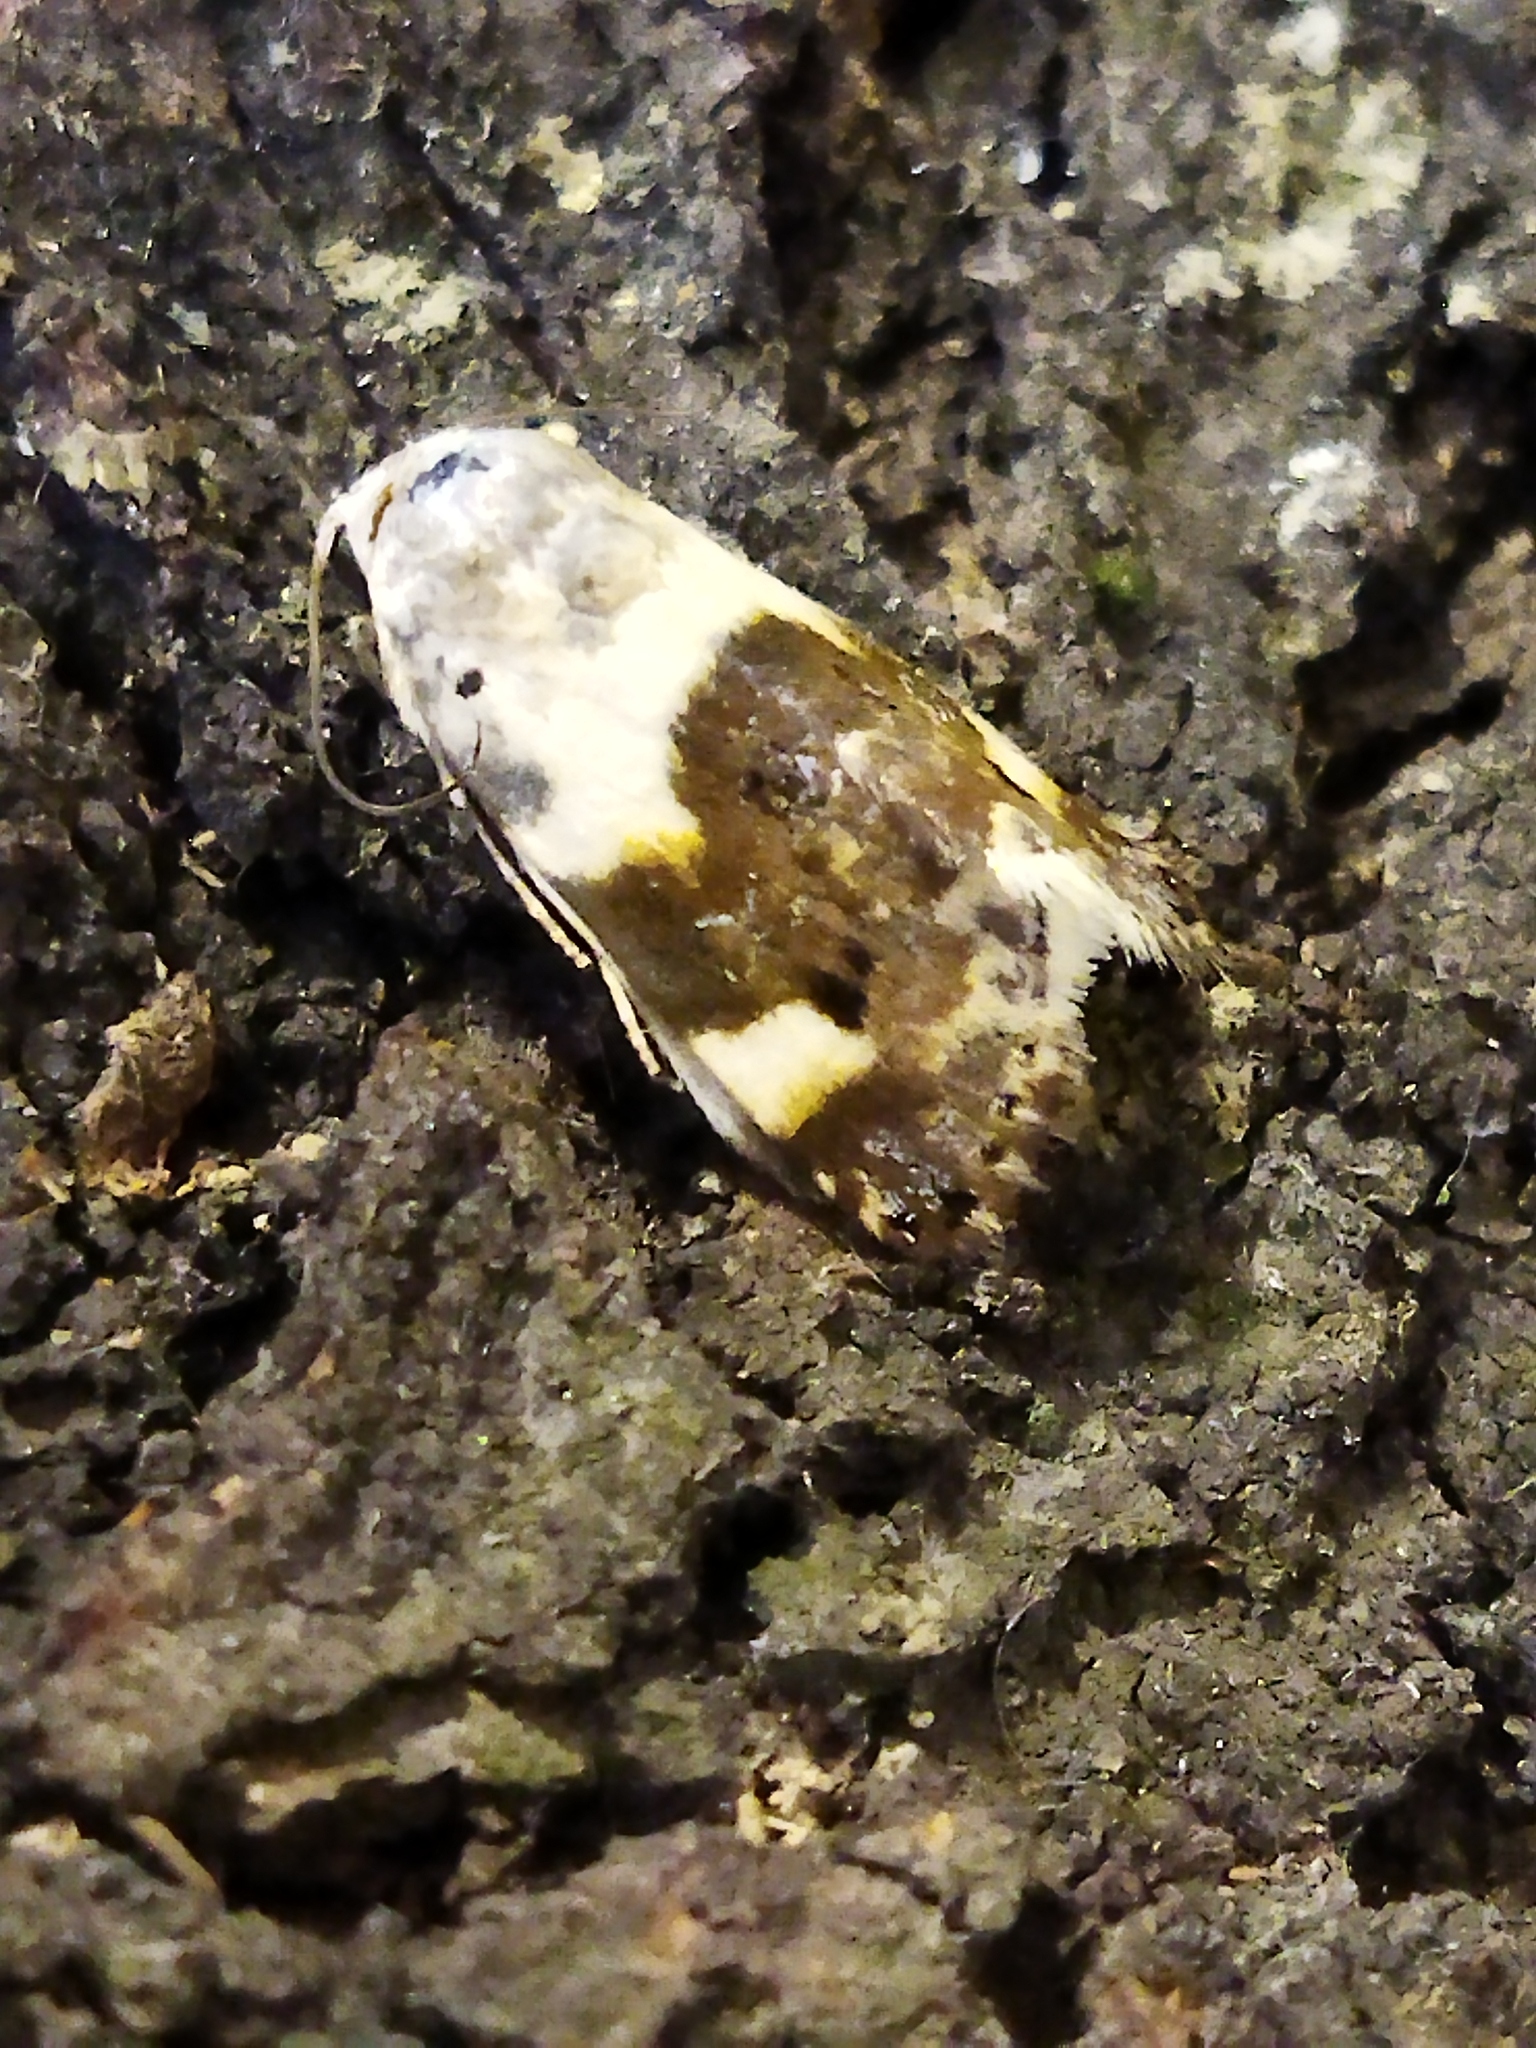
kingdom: Animalia
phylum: Arthropoda
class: Insecta
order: Lepidoptera
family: Noctuidae
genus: Acontia
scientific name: Acontia lucida
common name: Pale shoulder
